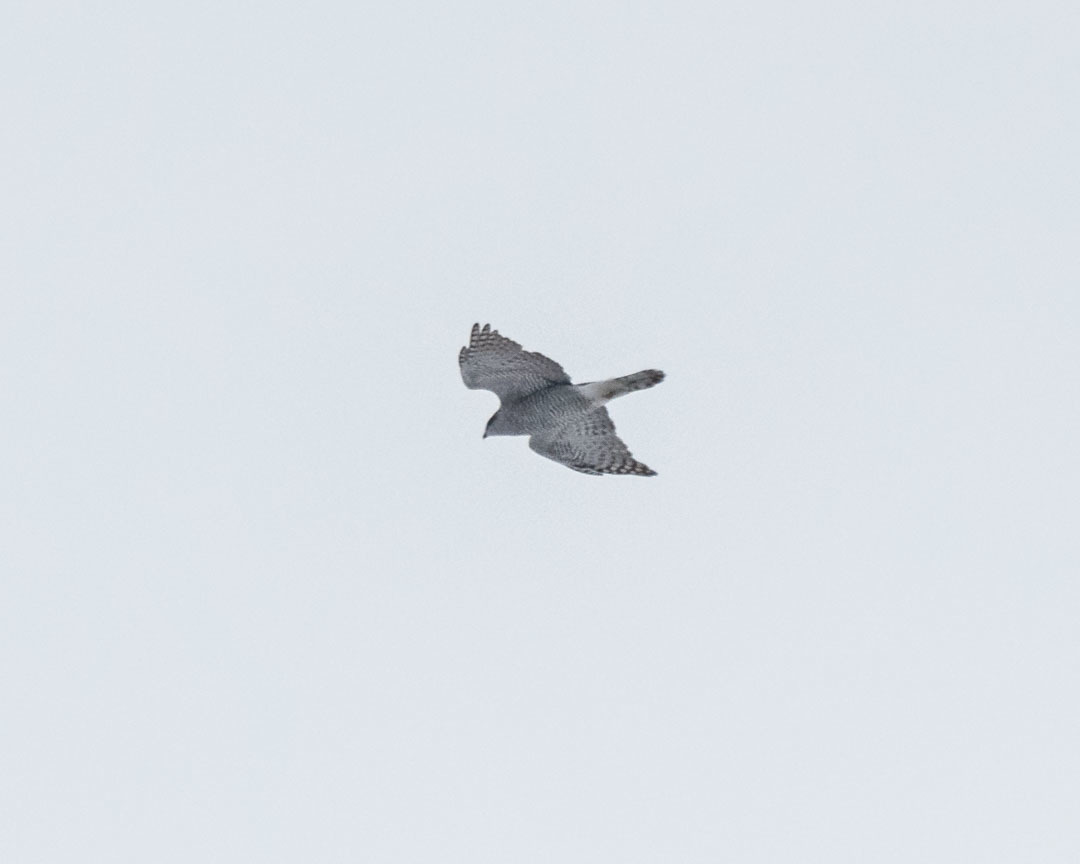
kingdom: Animalia
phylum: Chordata
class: Aves
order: Accipitriformes
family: Accipitridae
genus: Accipiter
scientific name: Accipiter gentilis
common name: Northern goshawk
